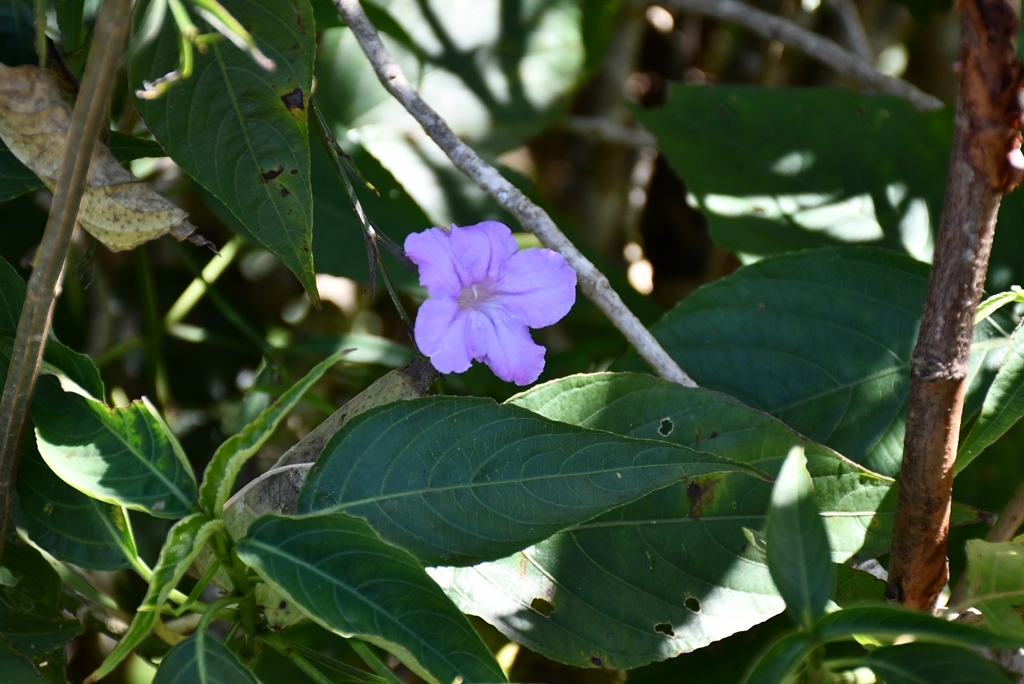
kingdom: Plantae
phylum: Tracheophyta
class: Magnoliopsida
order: Lamiales
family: Acanthaceae
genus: Ruellia
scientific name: Ruellia breedlovei
